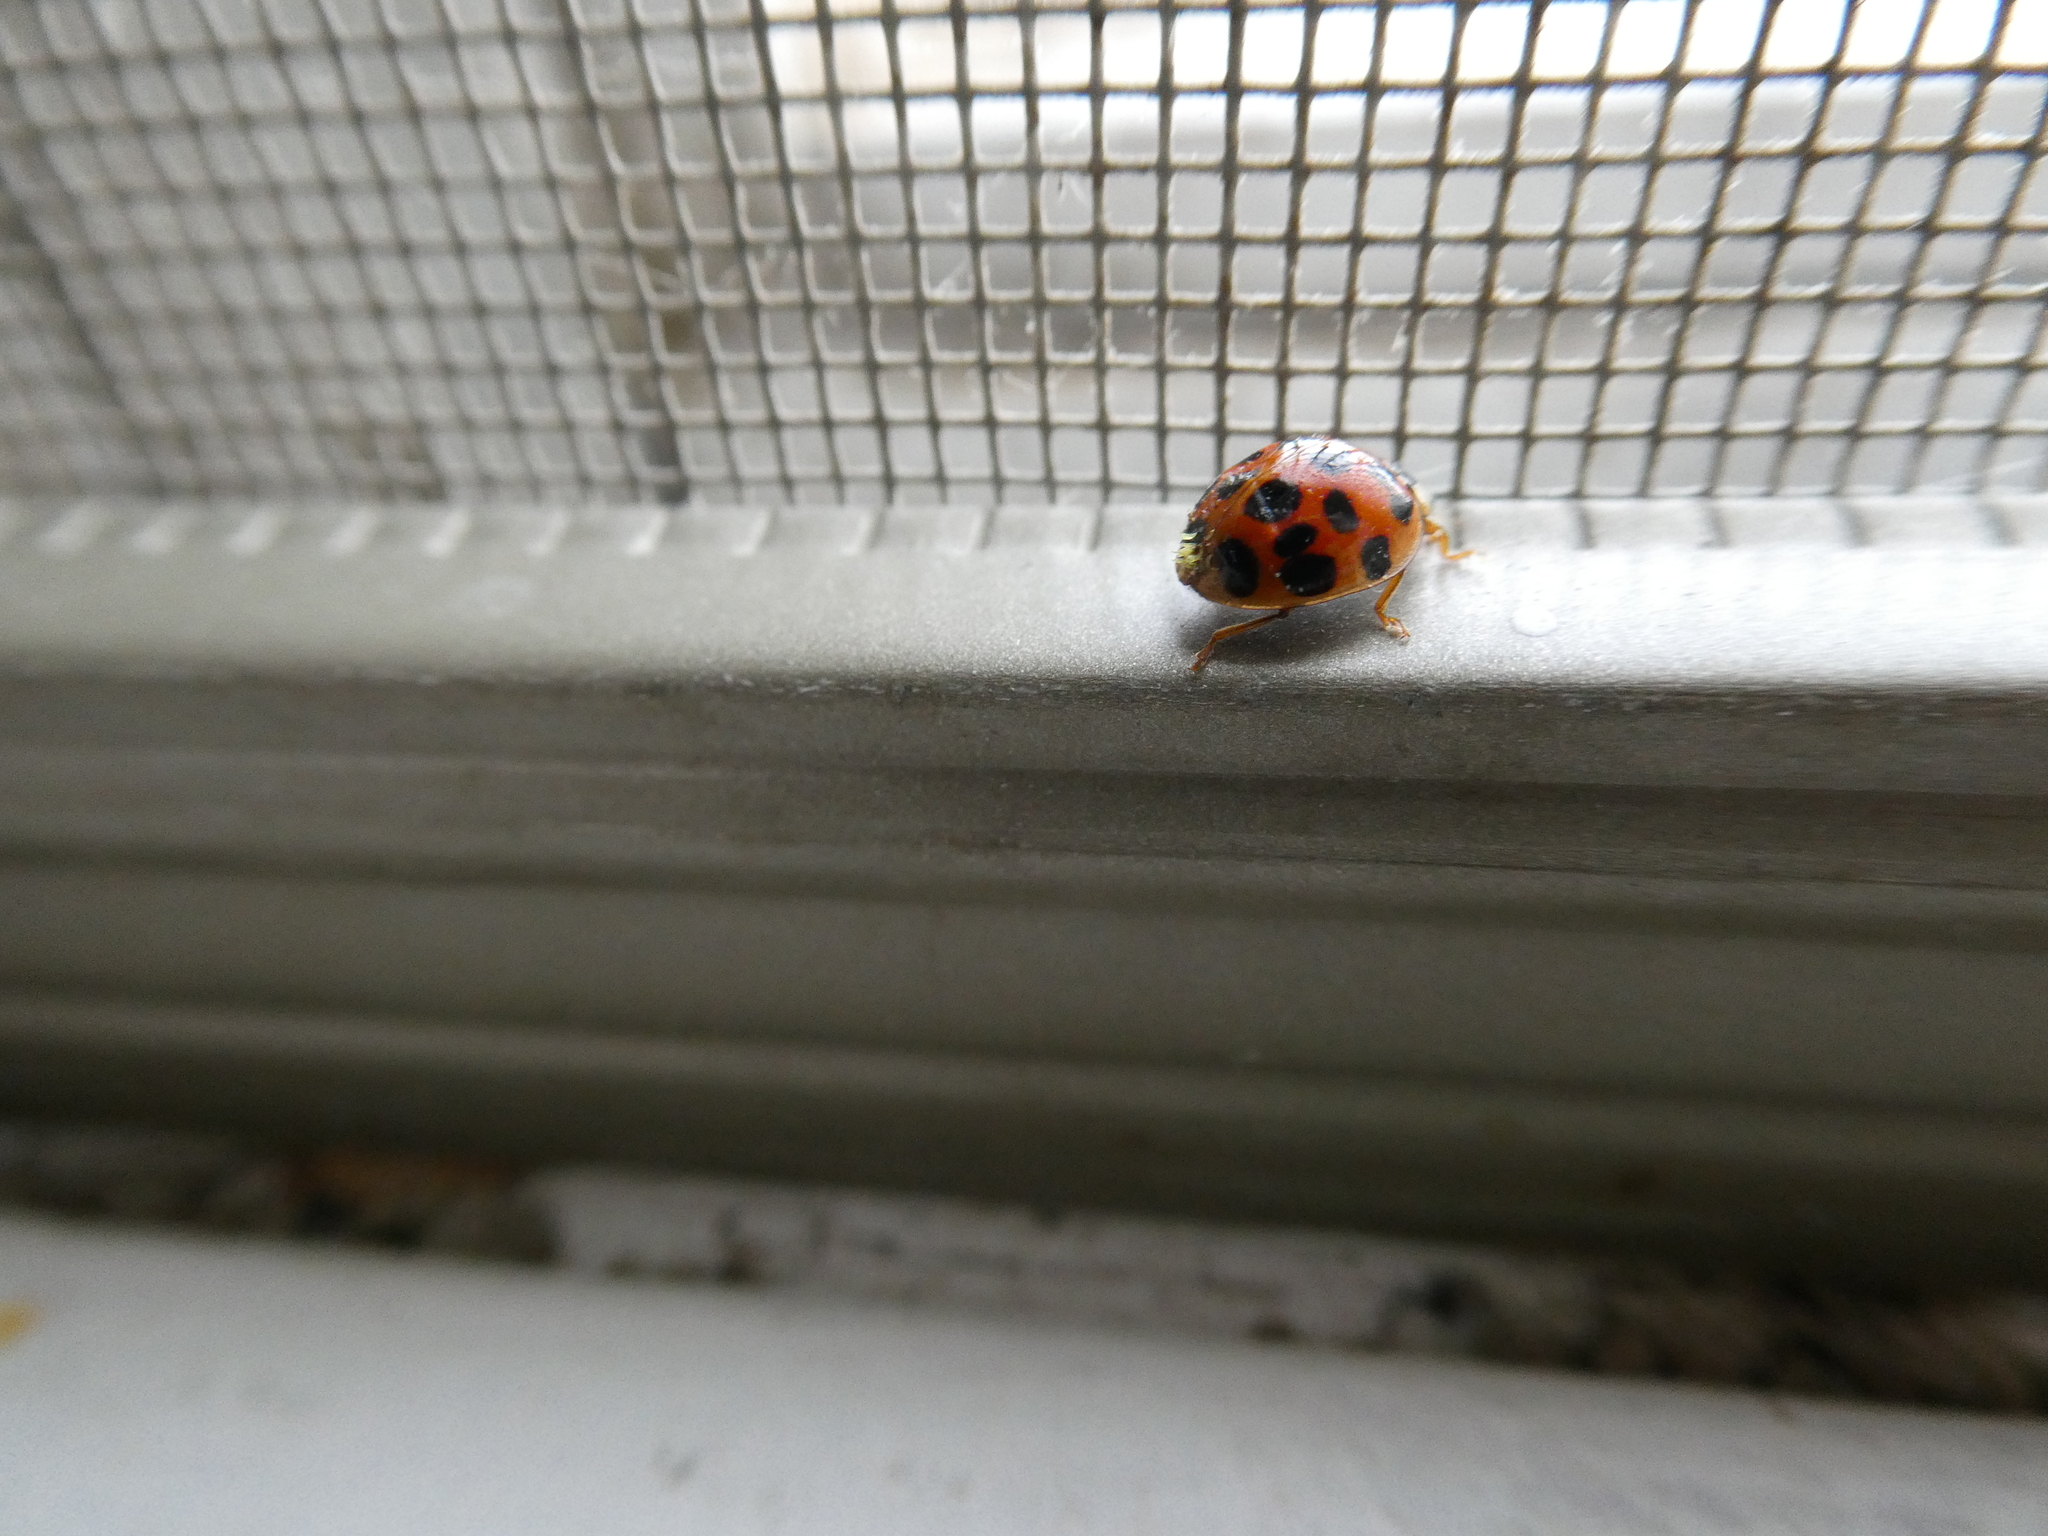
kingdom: Animalia
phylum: Arthropoda
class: Insecta
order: Coleoptera
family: Coccinellidae
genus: Harmonia
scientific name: Harmonia axyridis
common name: Harlequin ladybird
